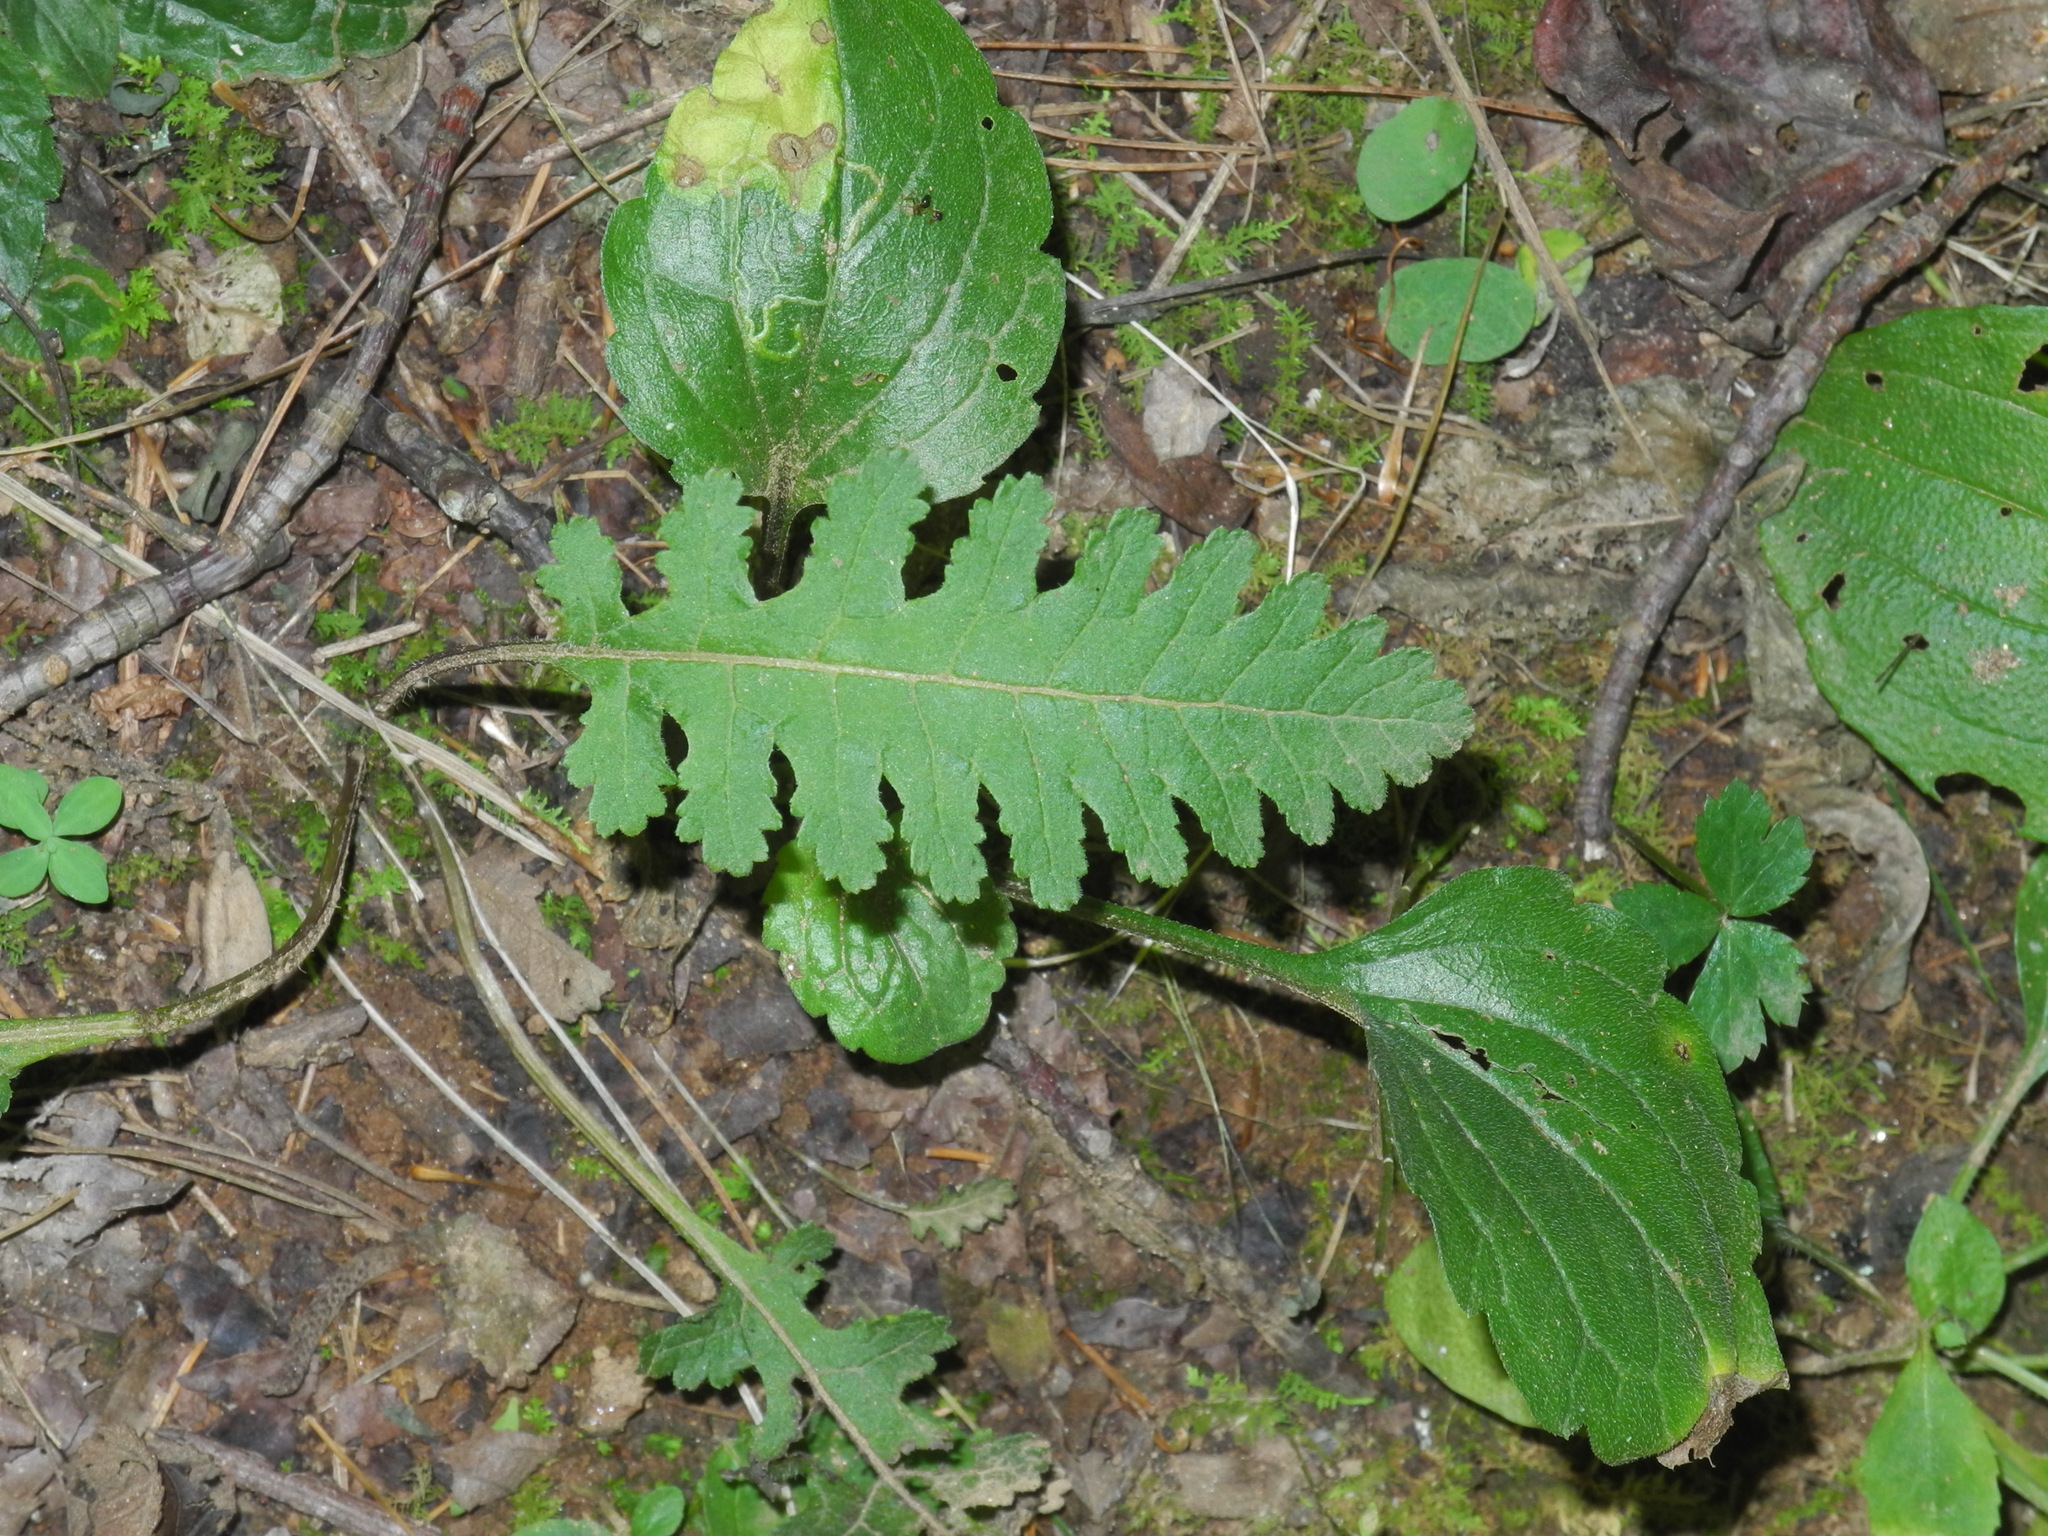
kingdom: Plantae
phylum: Tracheophyta
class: Magnoliopsida
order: Lamiales
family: Orobanchaceae
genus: Pedicularis
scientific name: Pedicularis canadensis
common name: Early lousewort
